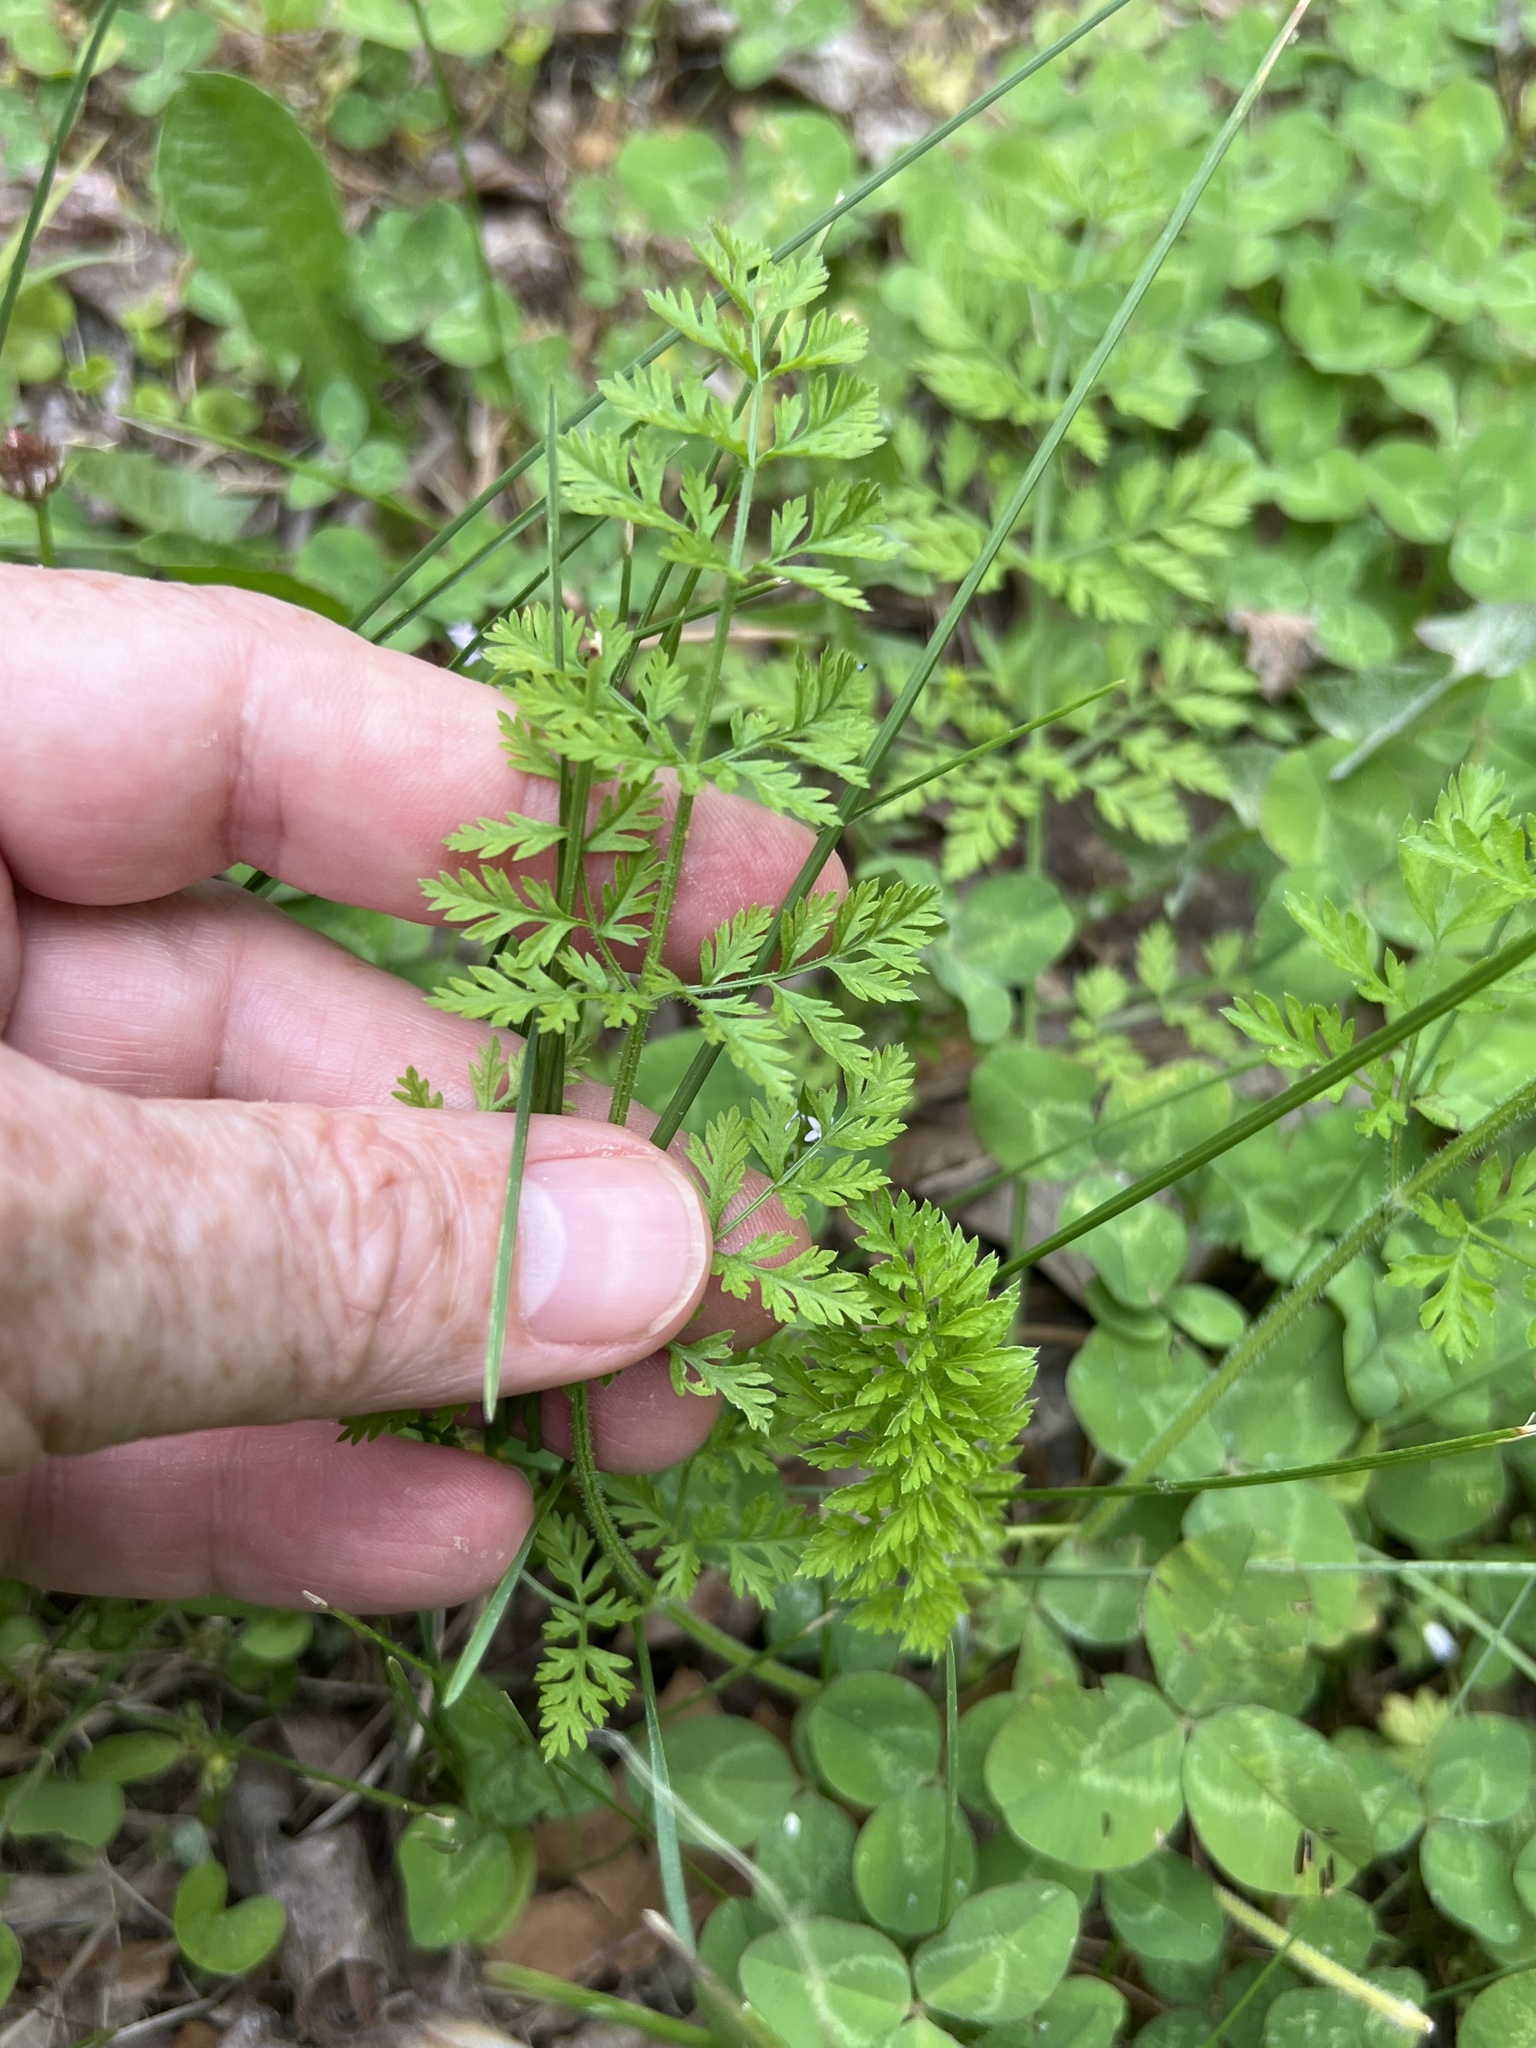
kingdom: Plantae
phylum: Tracheophyta
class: Magnoliopsida
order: Apiales
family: Apiaceae
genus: Daucus
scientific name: Daucus carota
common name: Wild carrot
